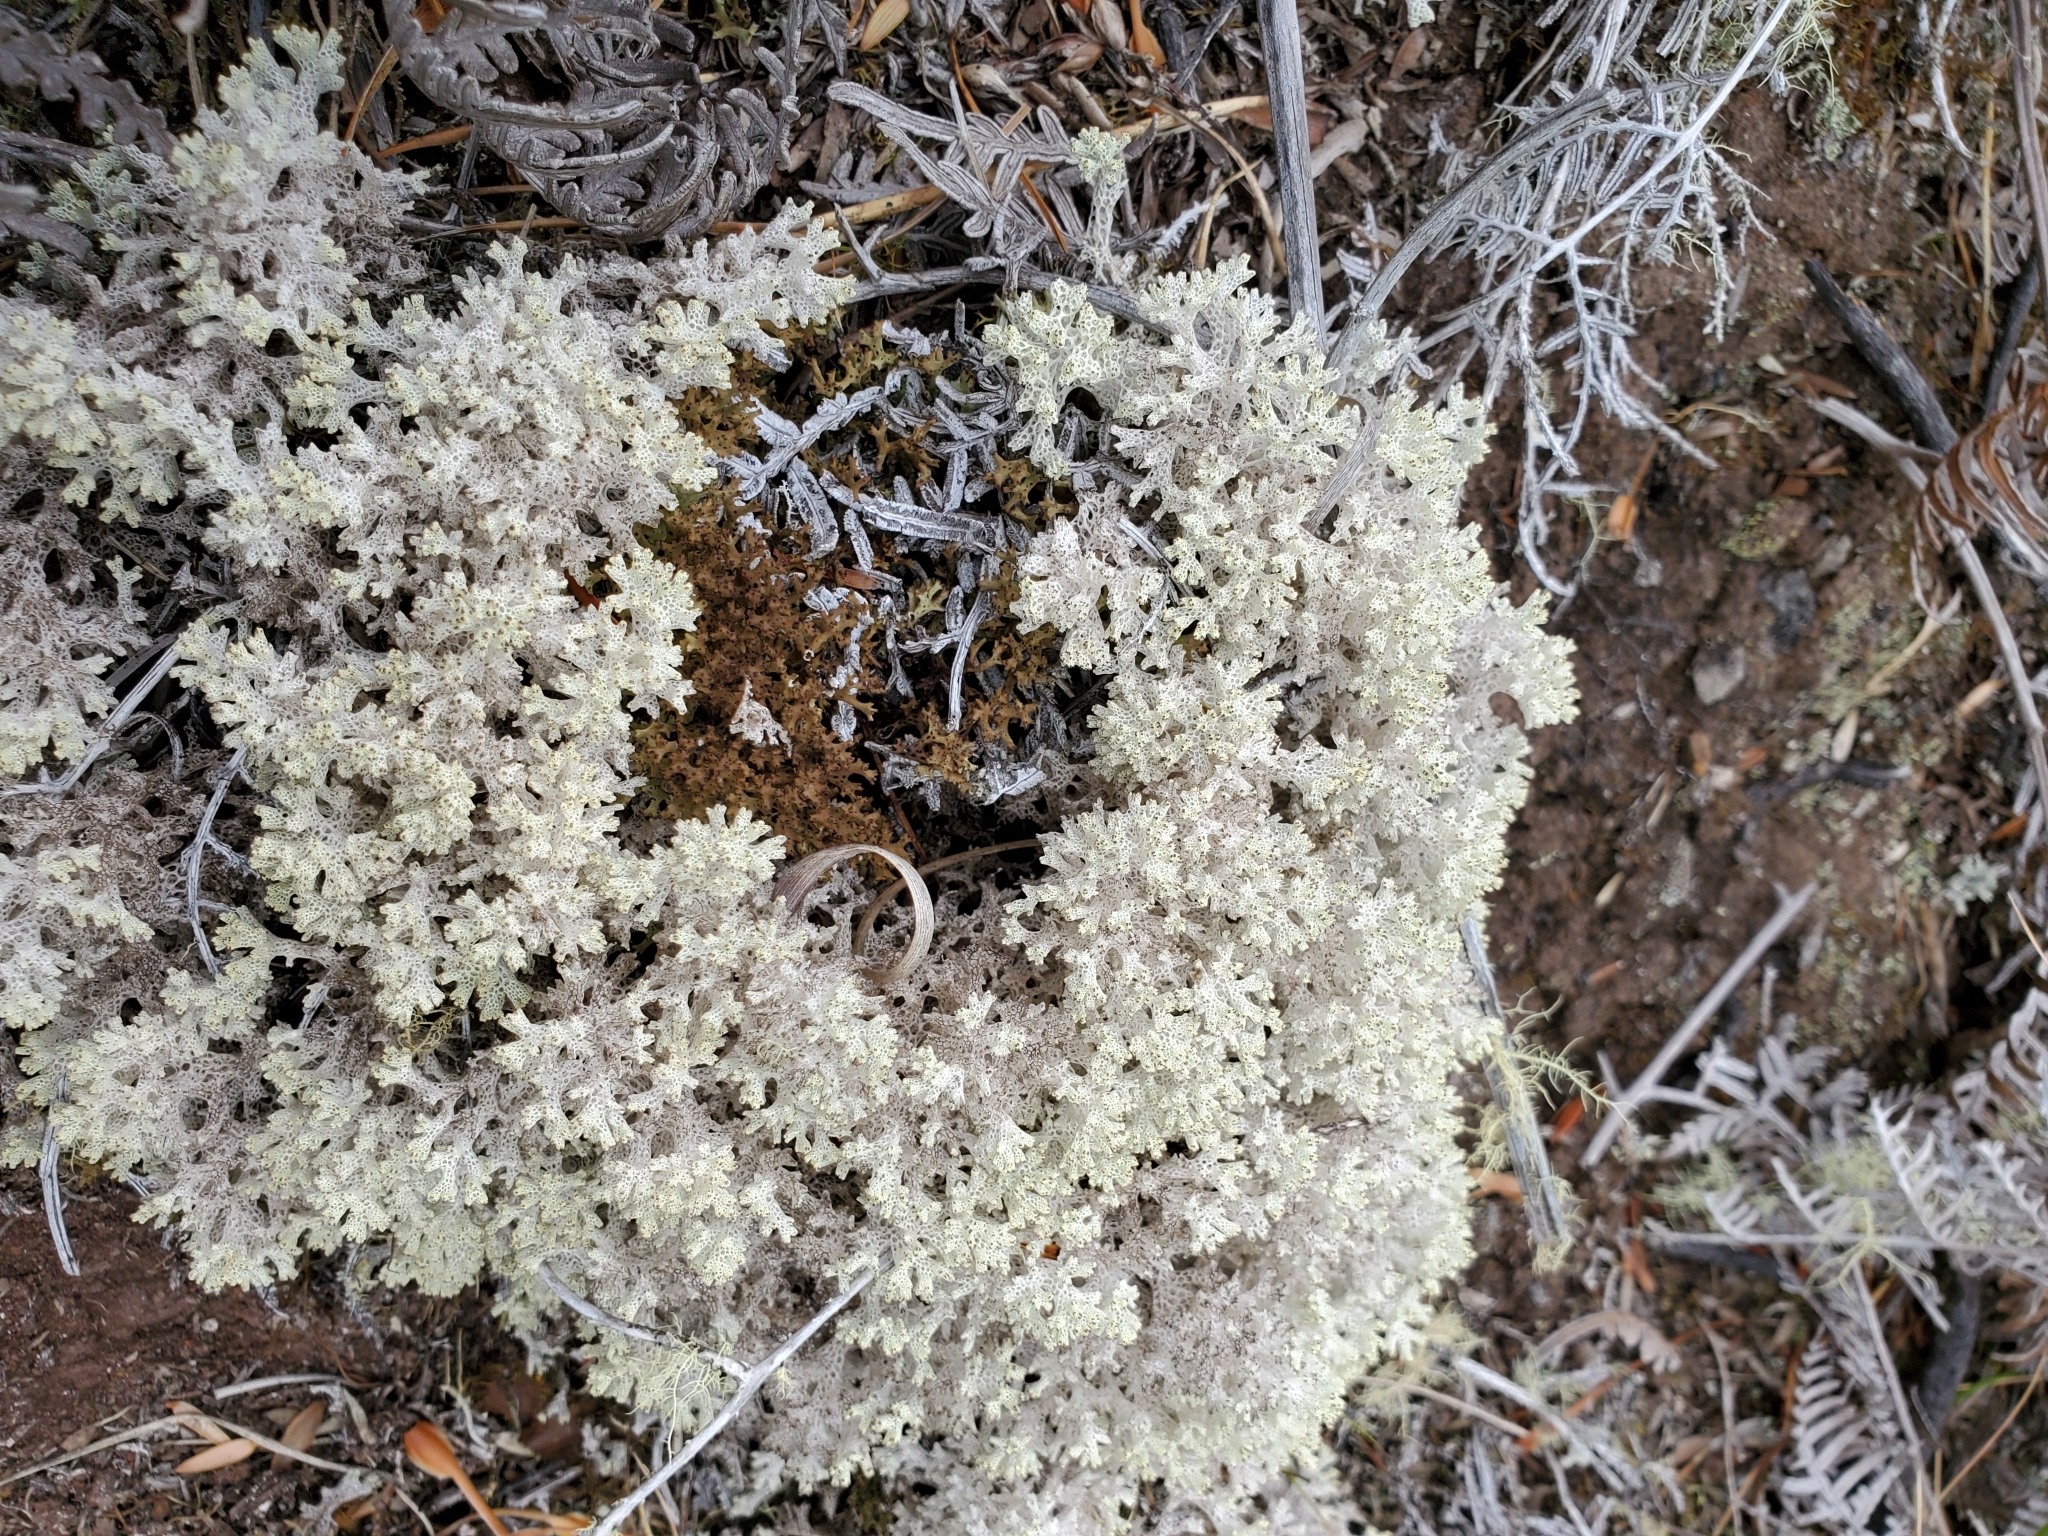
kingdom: Fungi
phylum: Ascomycota
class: Lecanoromycetes
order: Lecanorales
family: Cladoniaceae
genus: Pulchrocladia
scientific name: Pulchrocladia retipora
